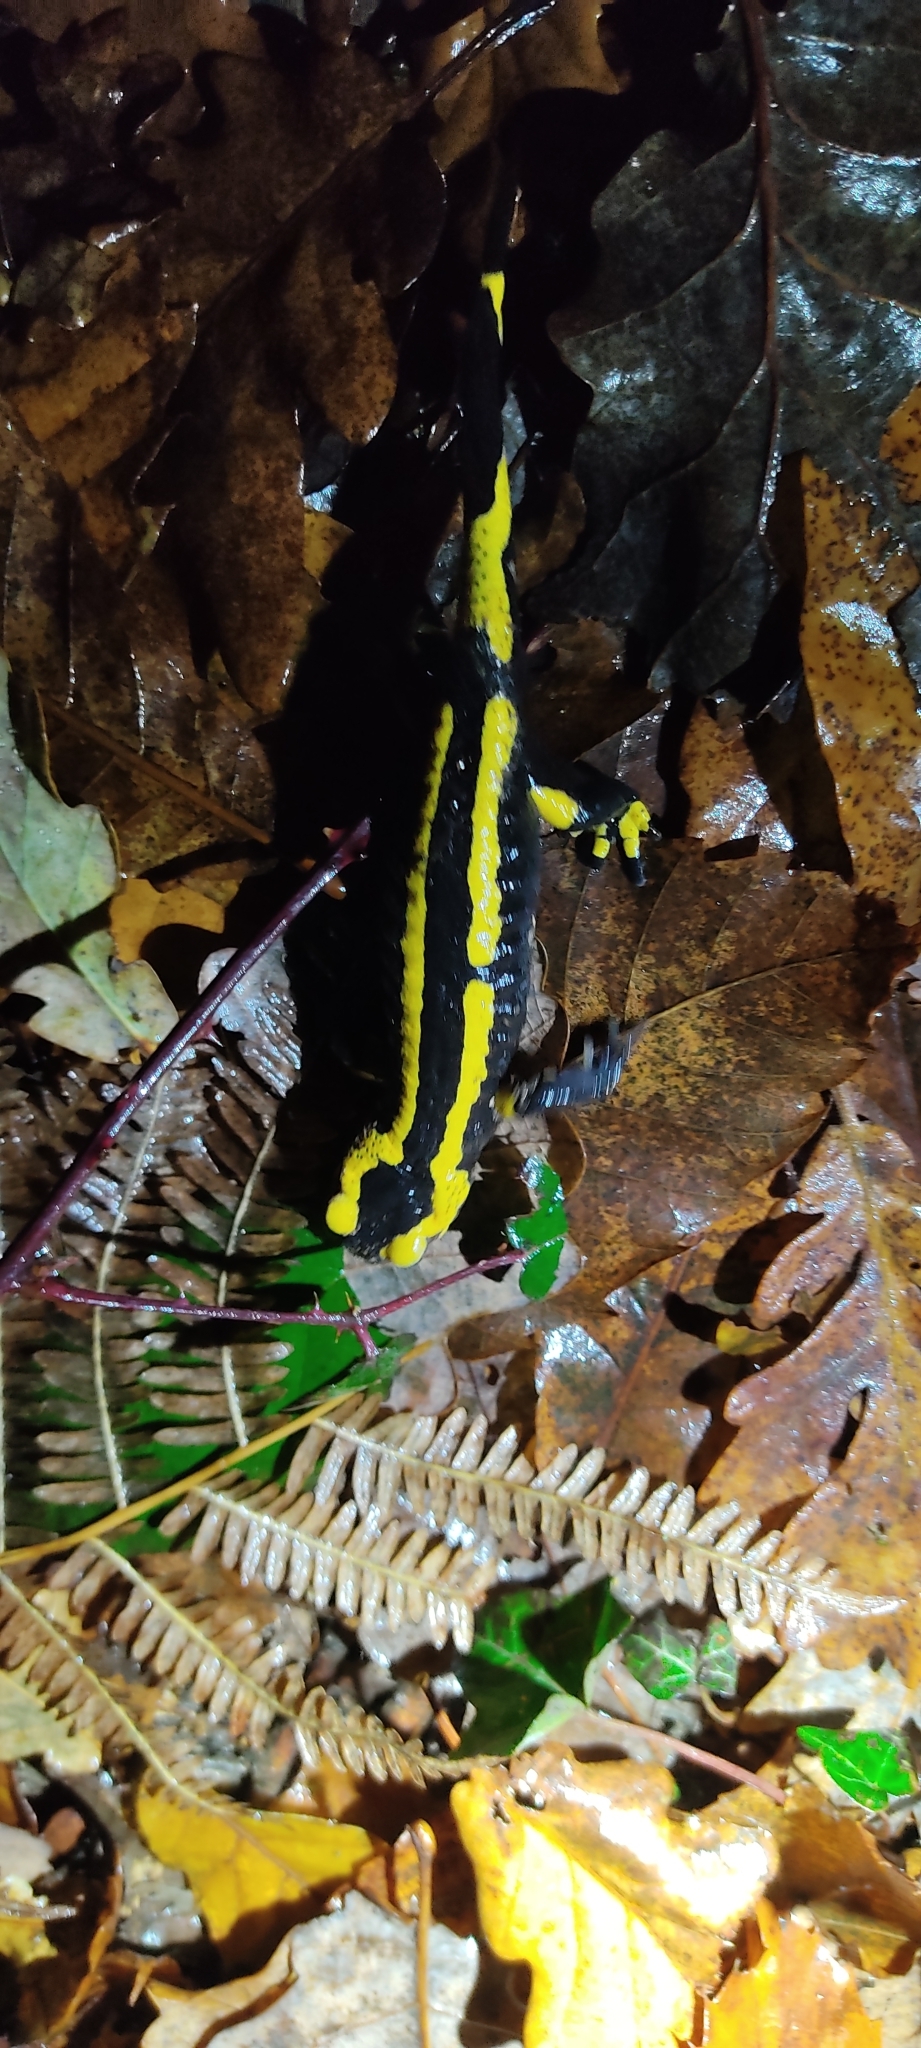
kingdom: Animalia
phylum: Chordata
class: Amphibia
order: Caudata
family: Salamandridae
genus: Salamandra
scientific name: Salamandra salamandra
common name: Fire salamander
